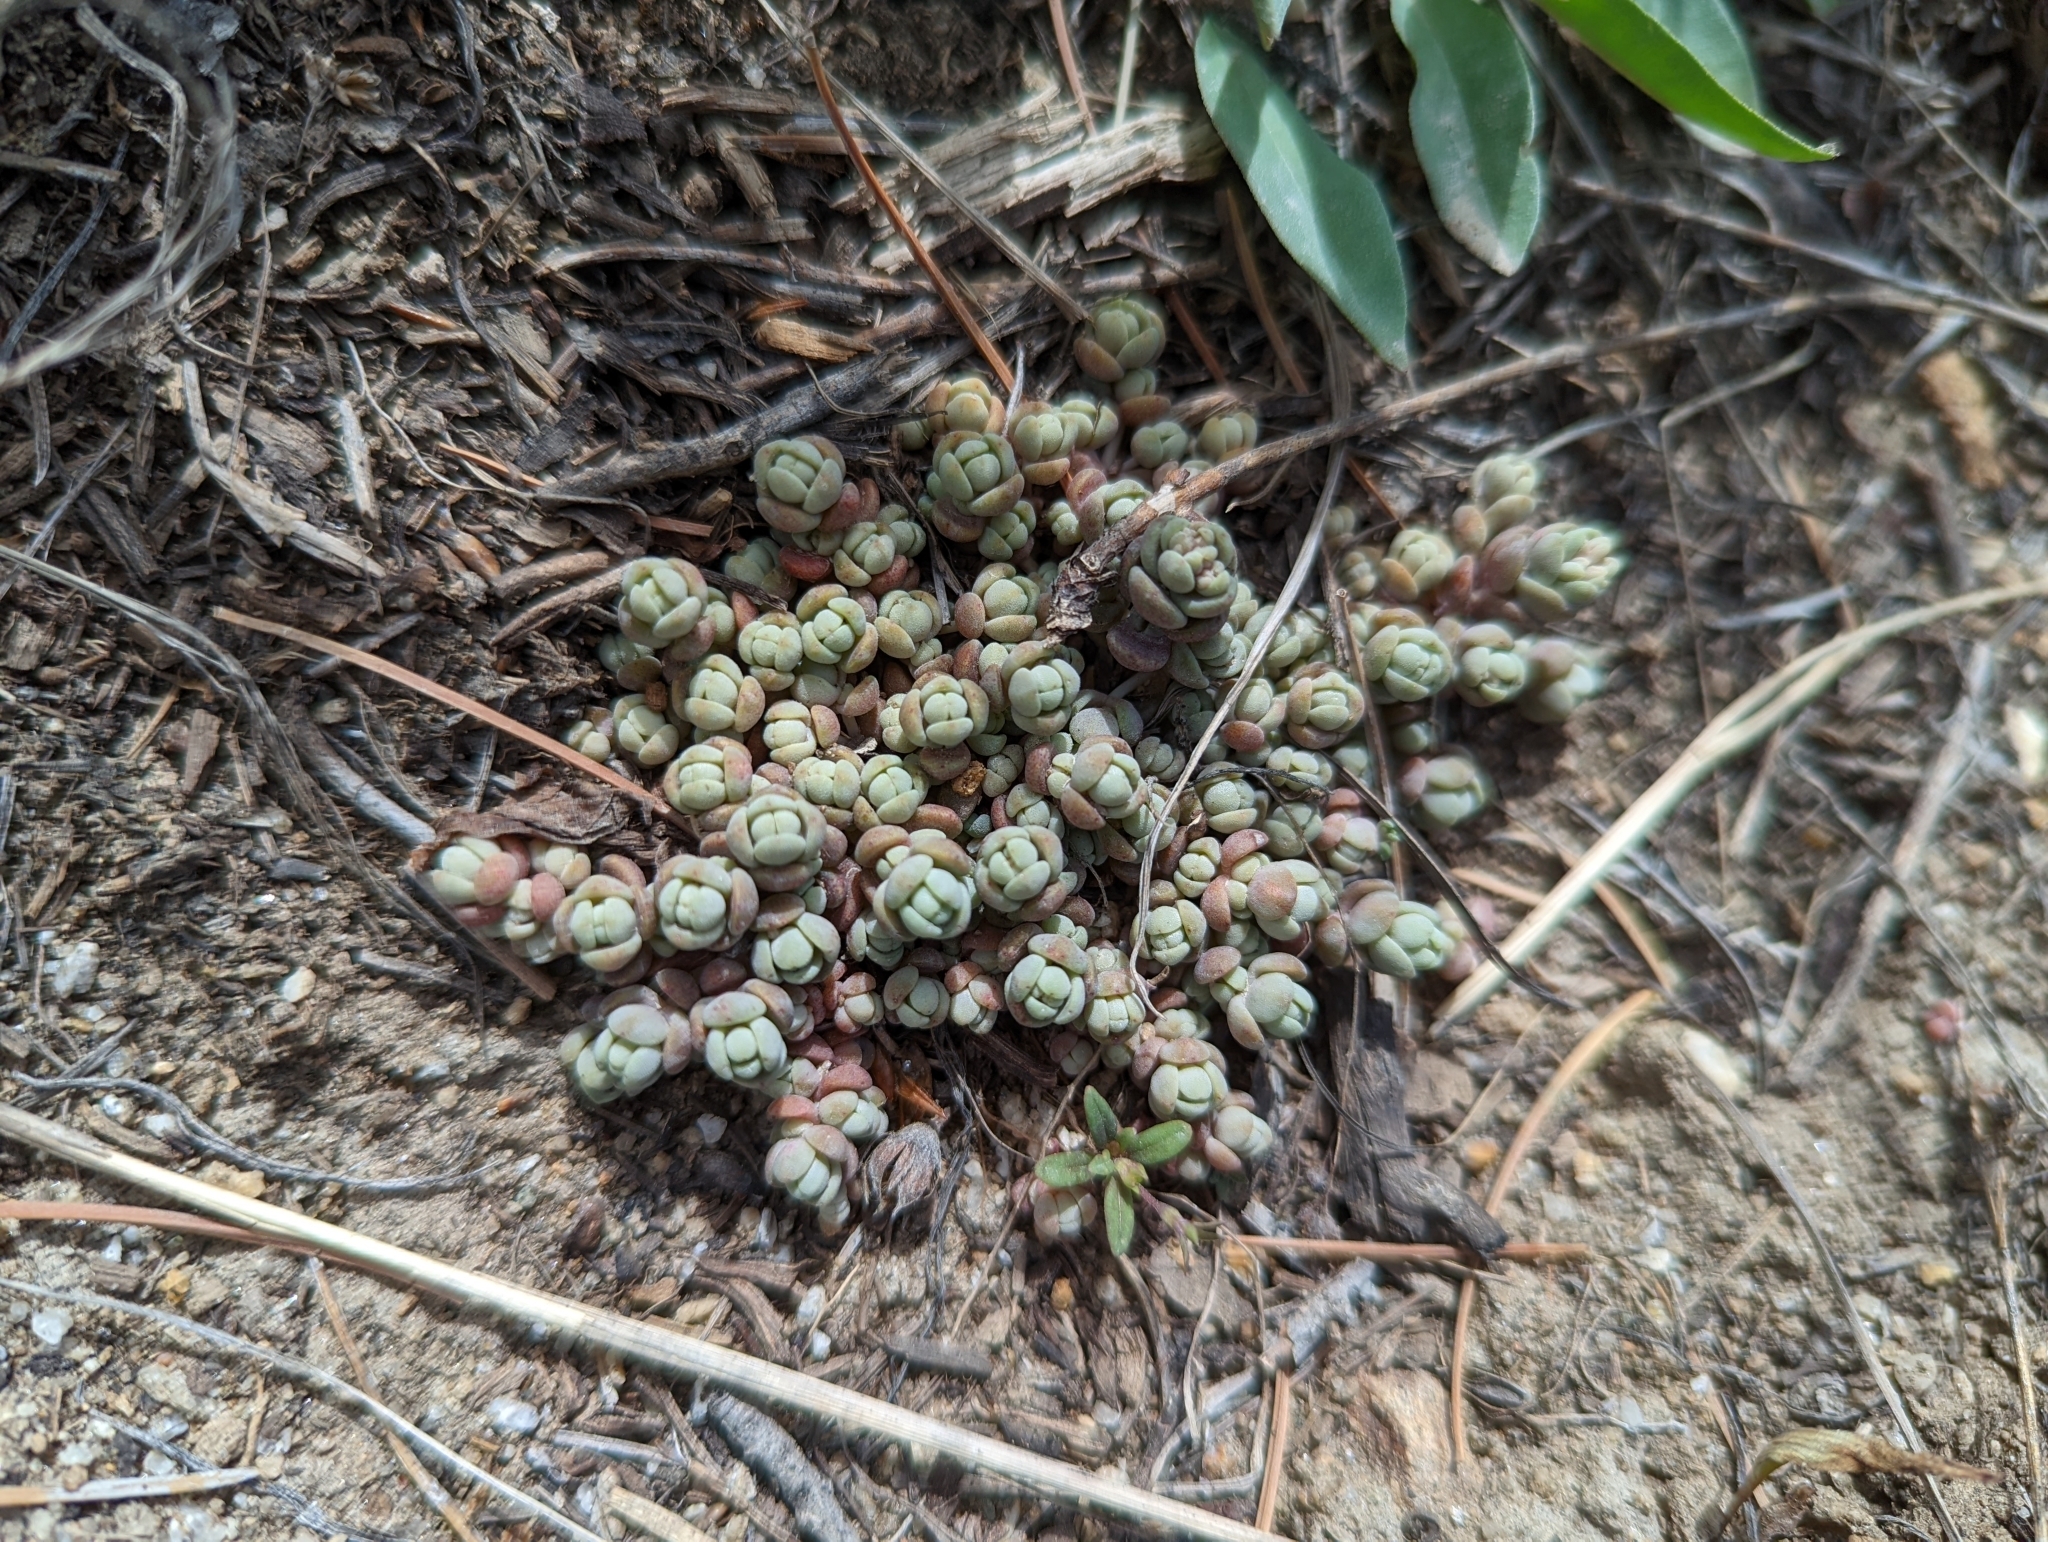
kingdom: Plantae
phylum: Tracheophyta
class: Magnoliopsida
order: Saxifragales
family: Crassulaceae
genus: Sedum
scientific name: Sedum debile
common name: Weak-stem stonecrop
